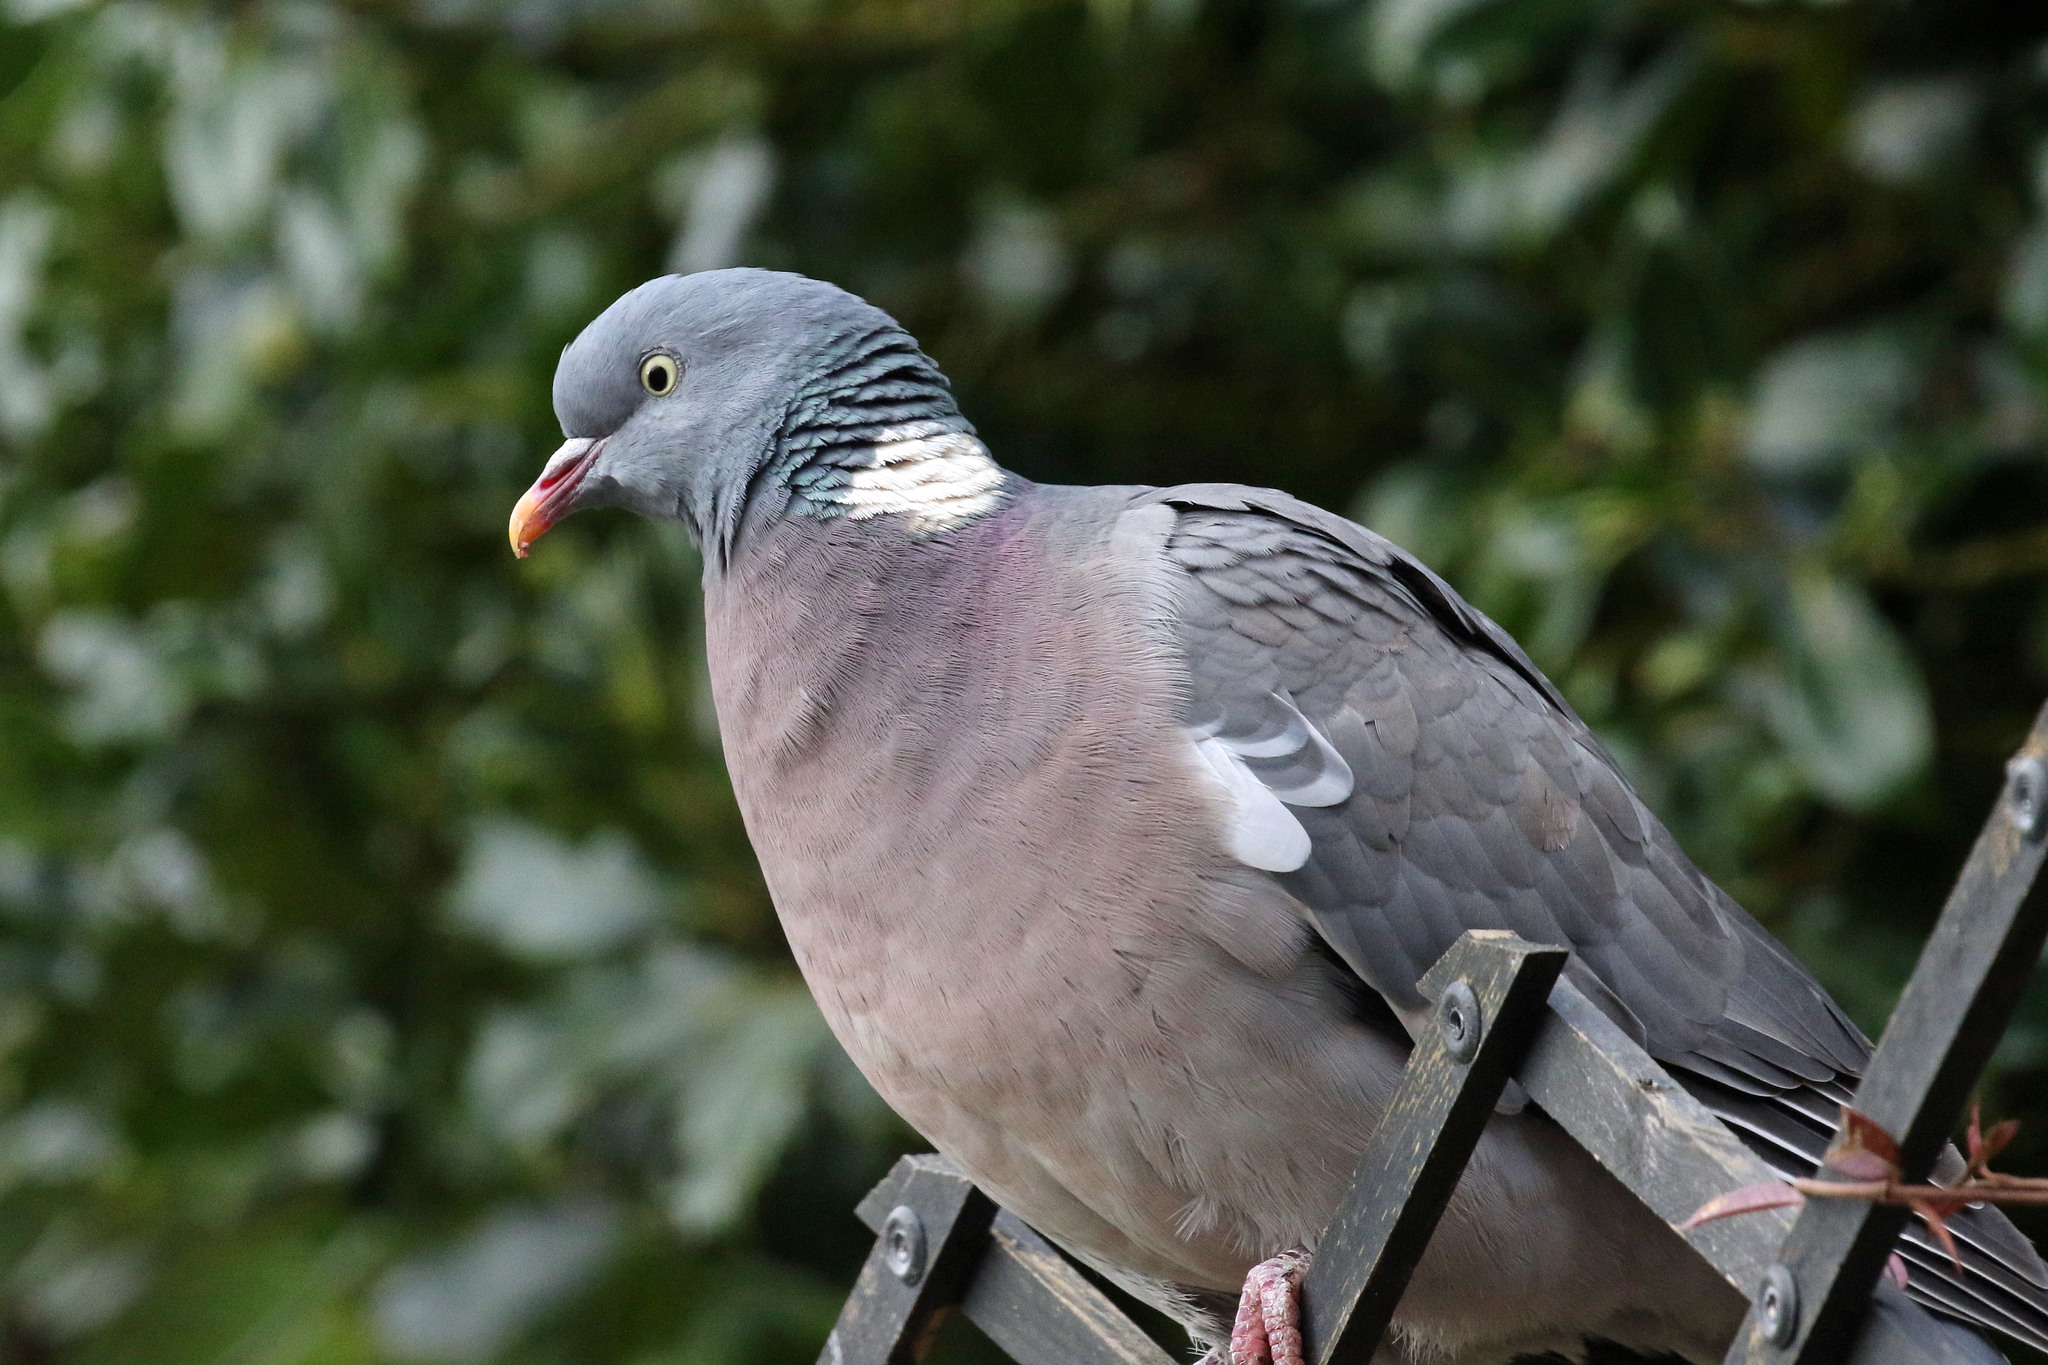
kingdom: Animalia
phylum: Chordata
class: Aves
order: Columbiformes
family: Columbidae
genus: Columba
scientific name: Columba palumbus
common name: Common wood pigeon
